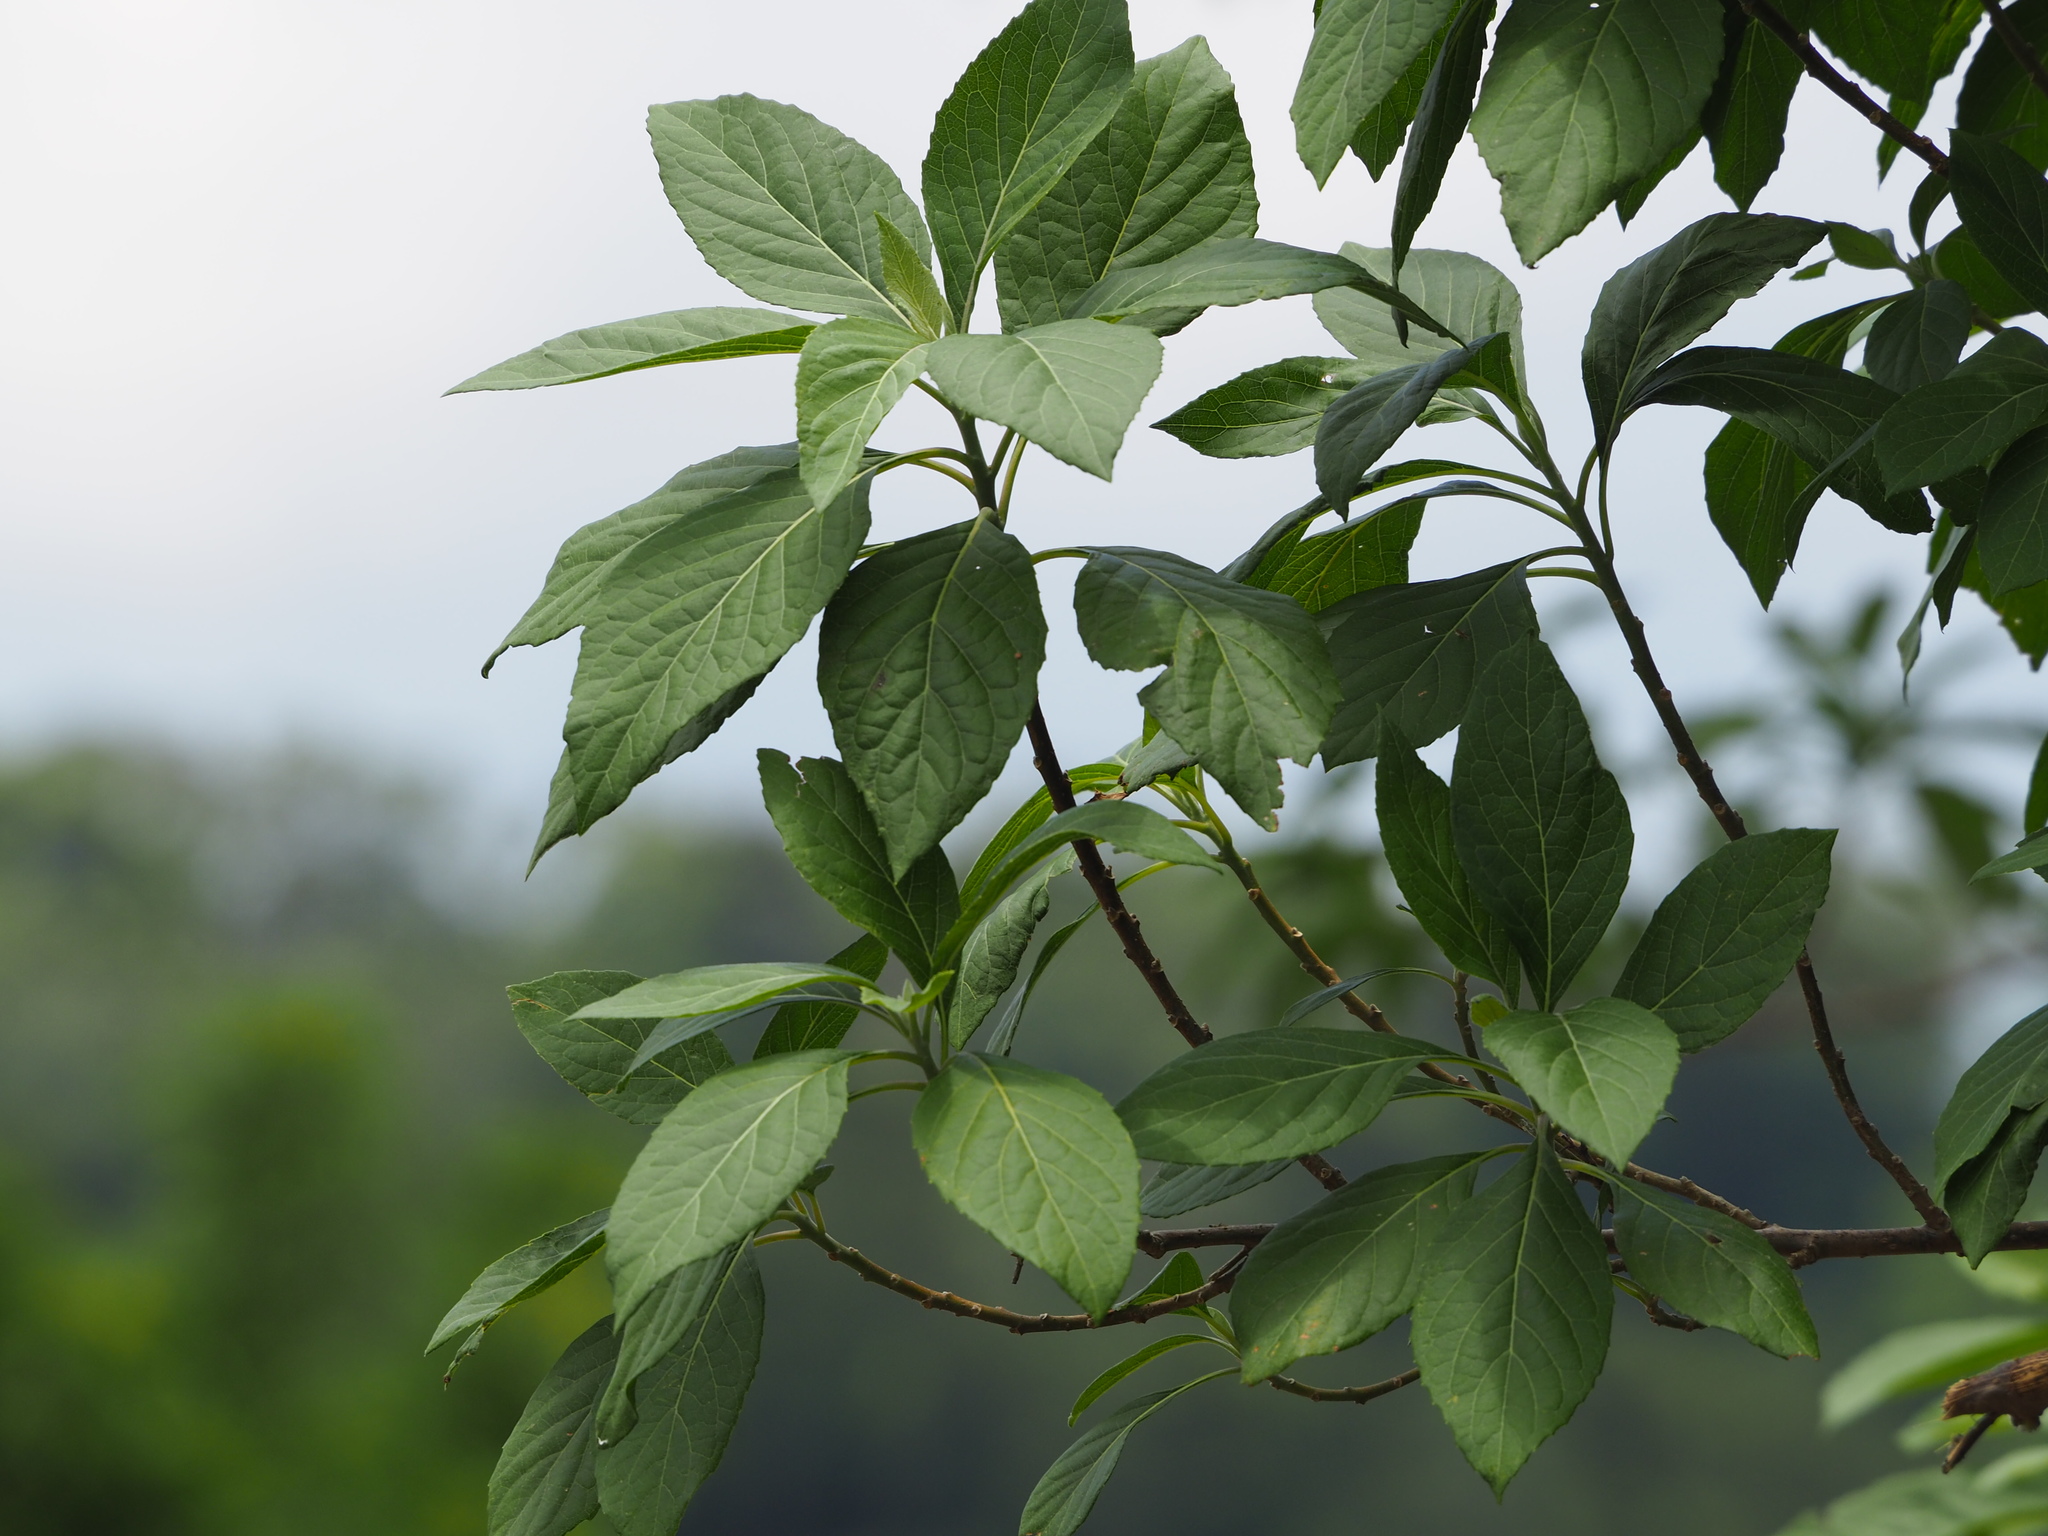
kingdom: Plantae
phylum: Tracheophyta
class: Magnoliopsida
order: Asterales
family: Asteraceae
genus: Gymnanthemum
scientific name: Gymnanthemum amygdalinum
